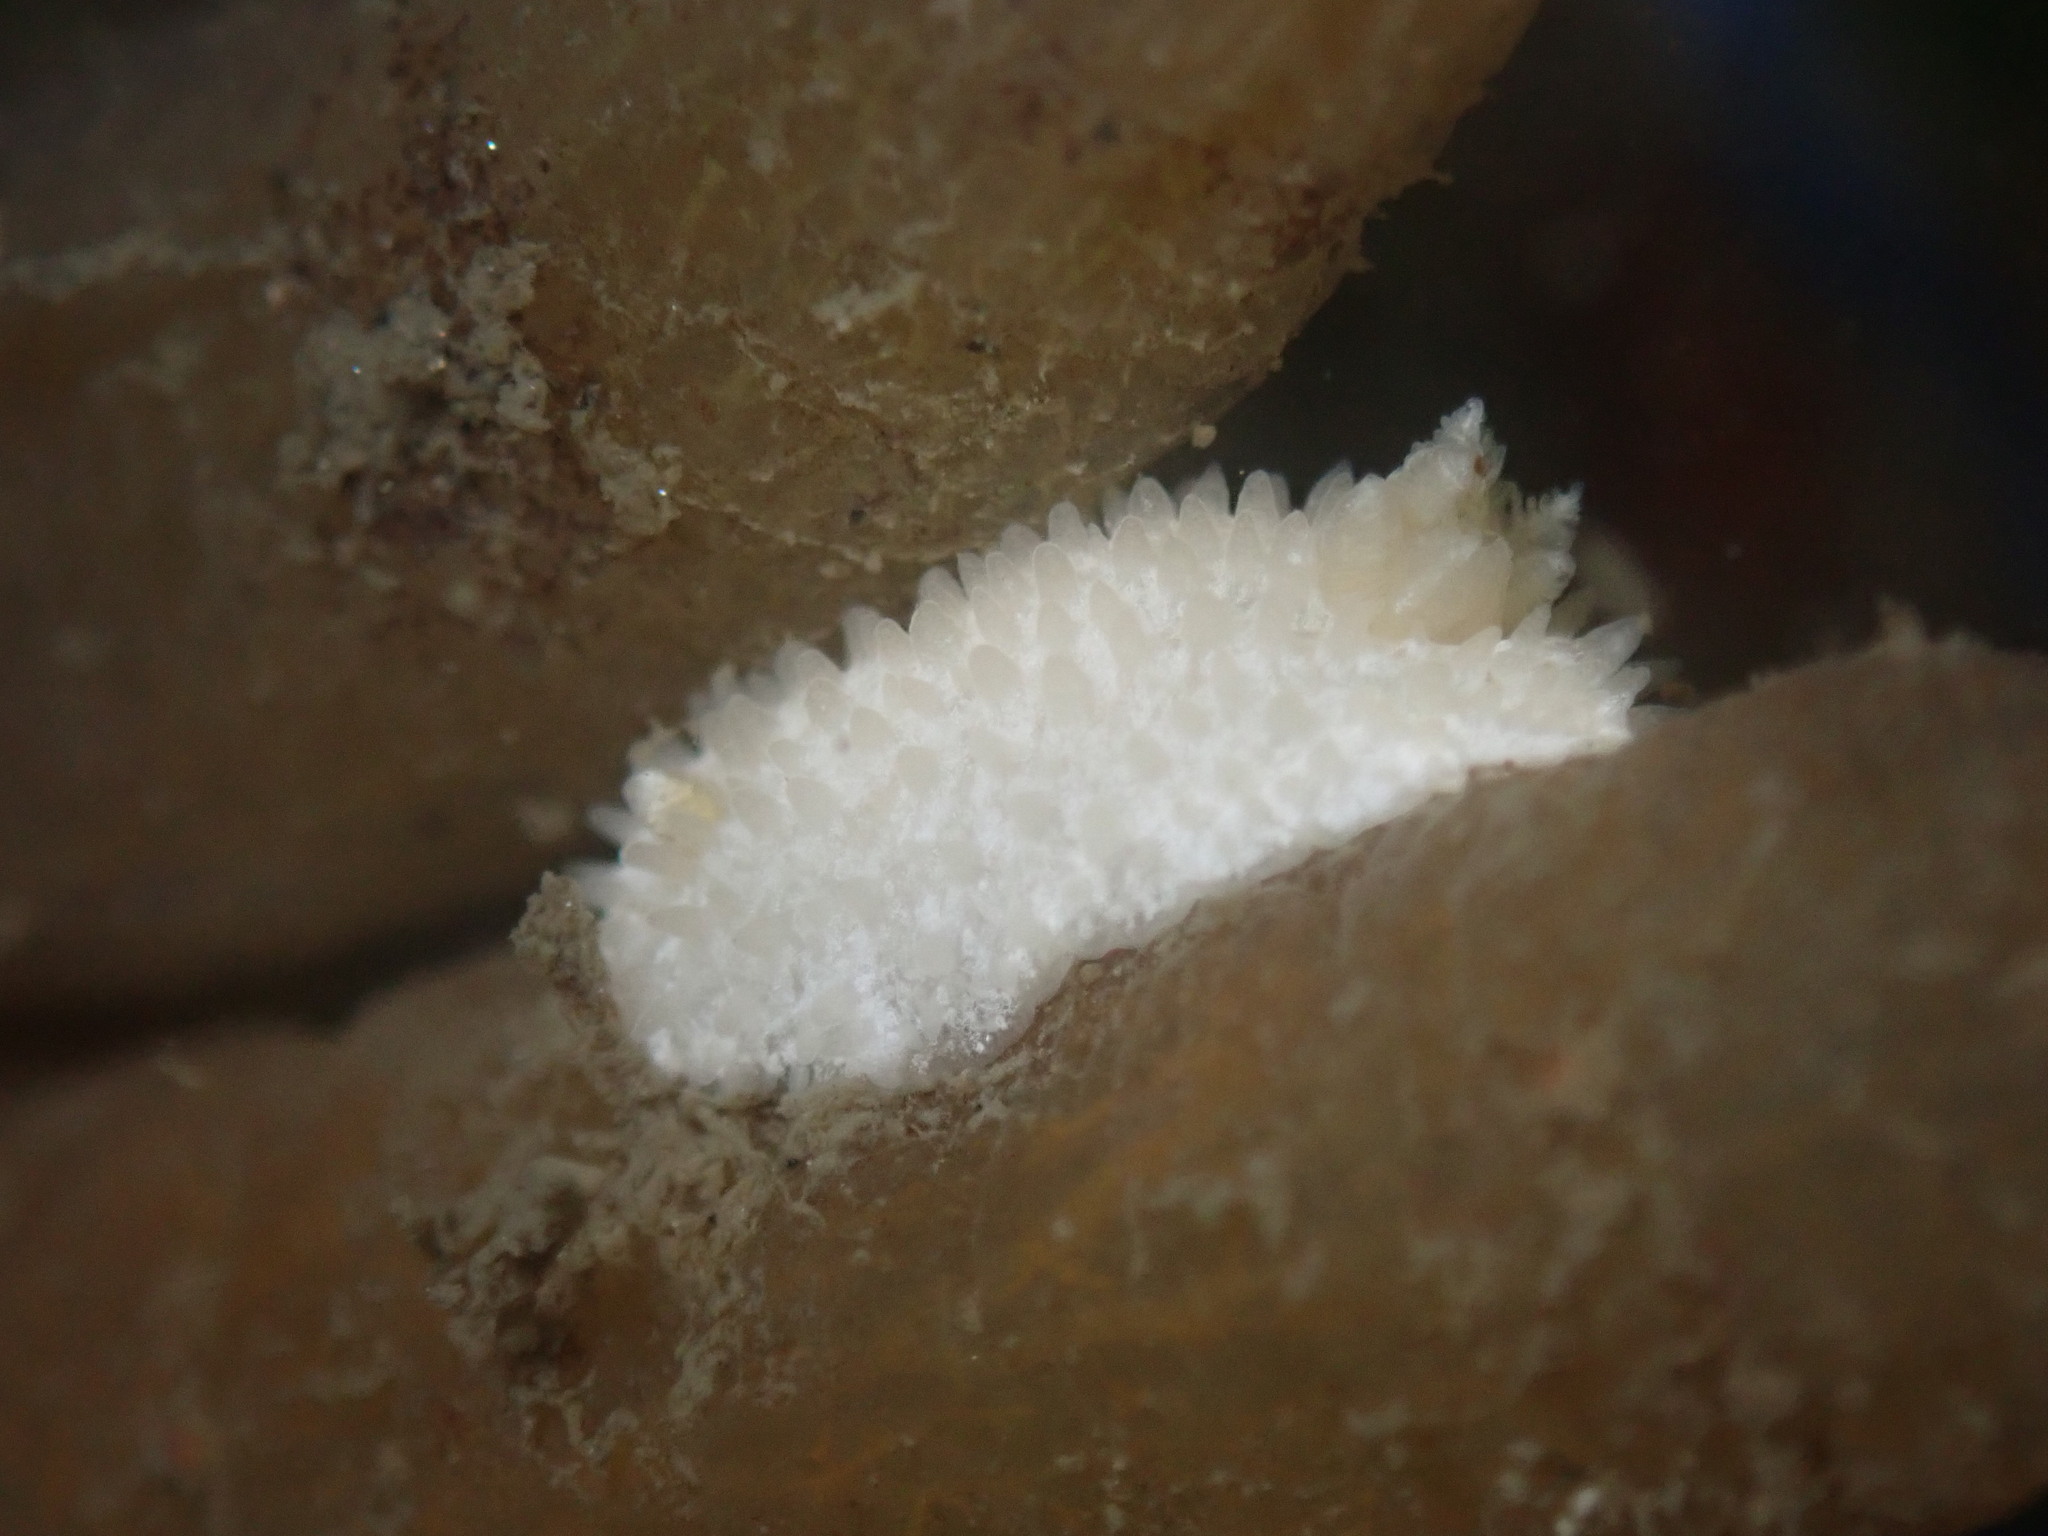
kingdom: Animalia
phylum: Mollusca
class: Gastropoda
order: Nudibranchia
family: Calycidorididae
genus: Diaphorodoris
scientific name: Diaphorodoris lirulatocauda
